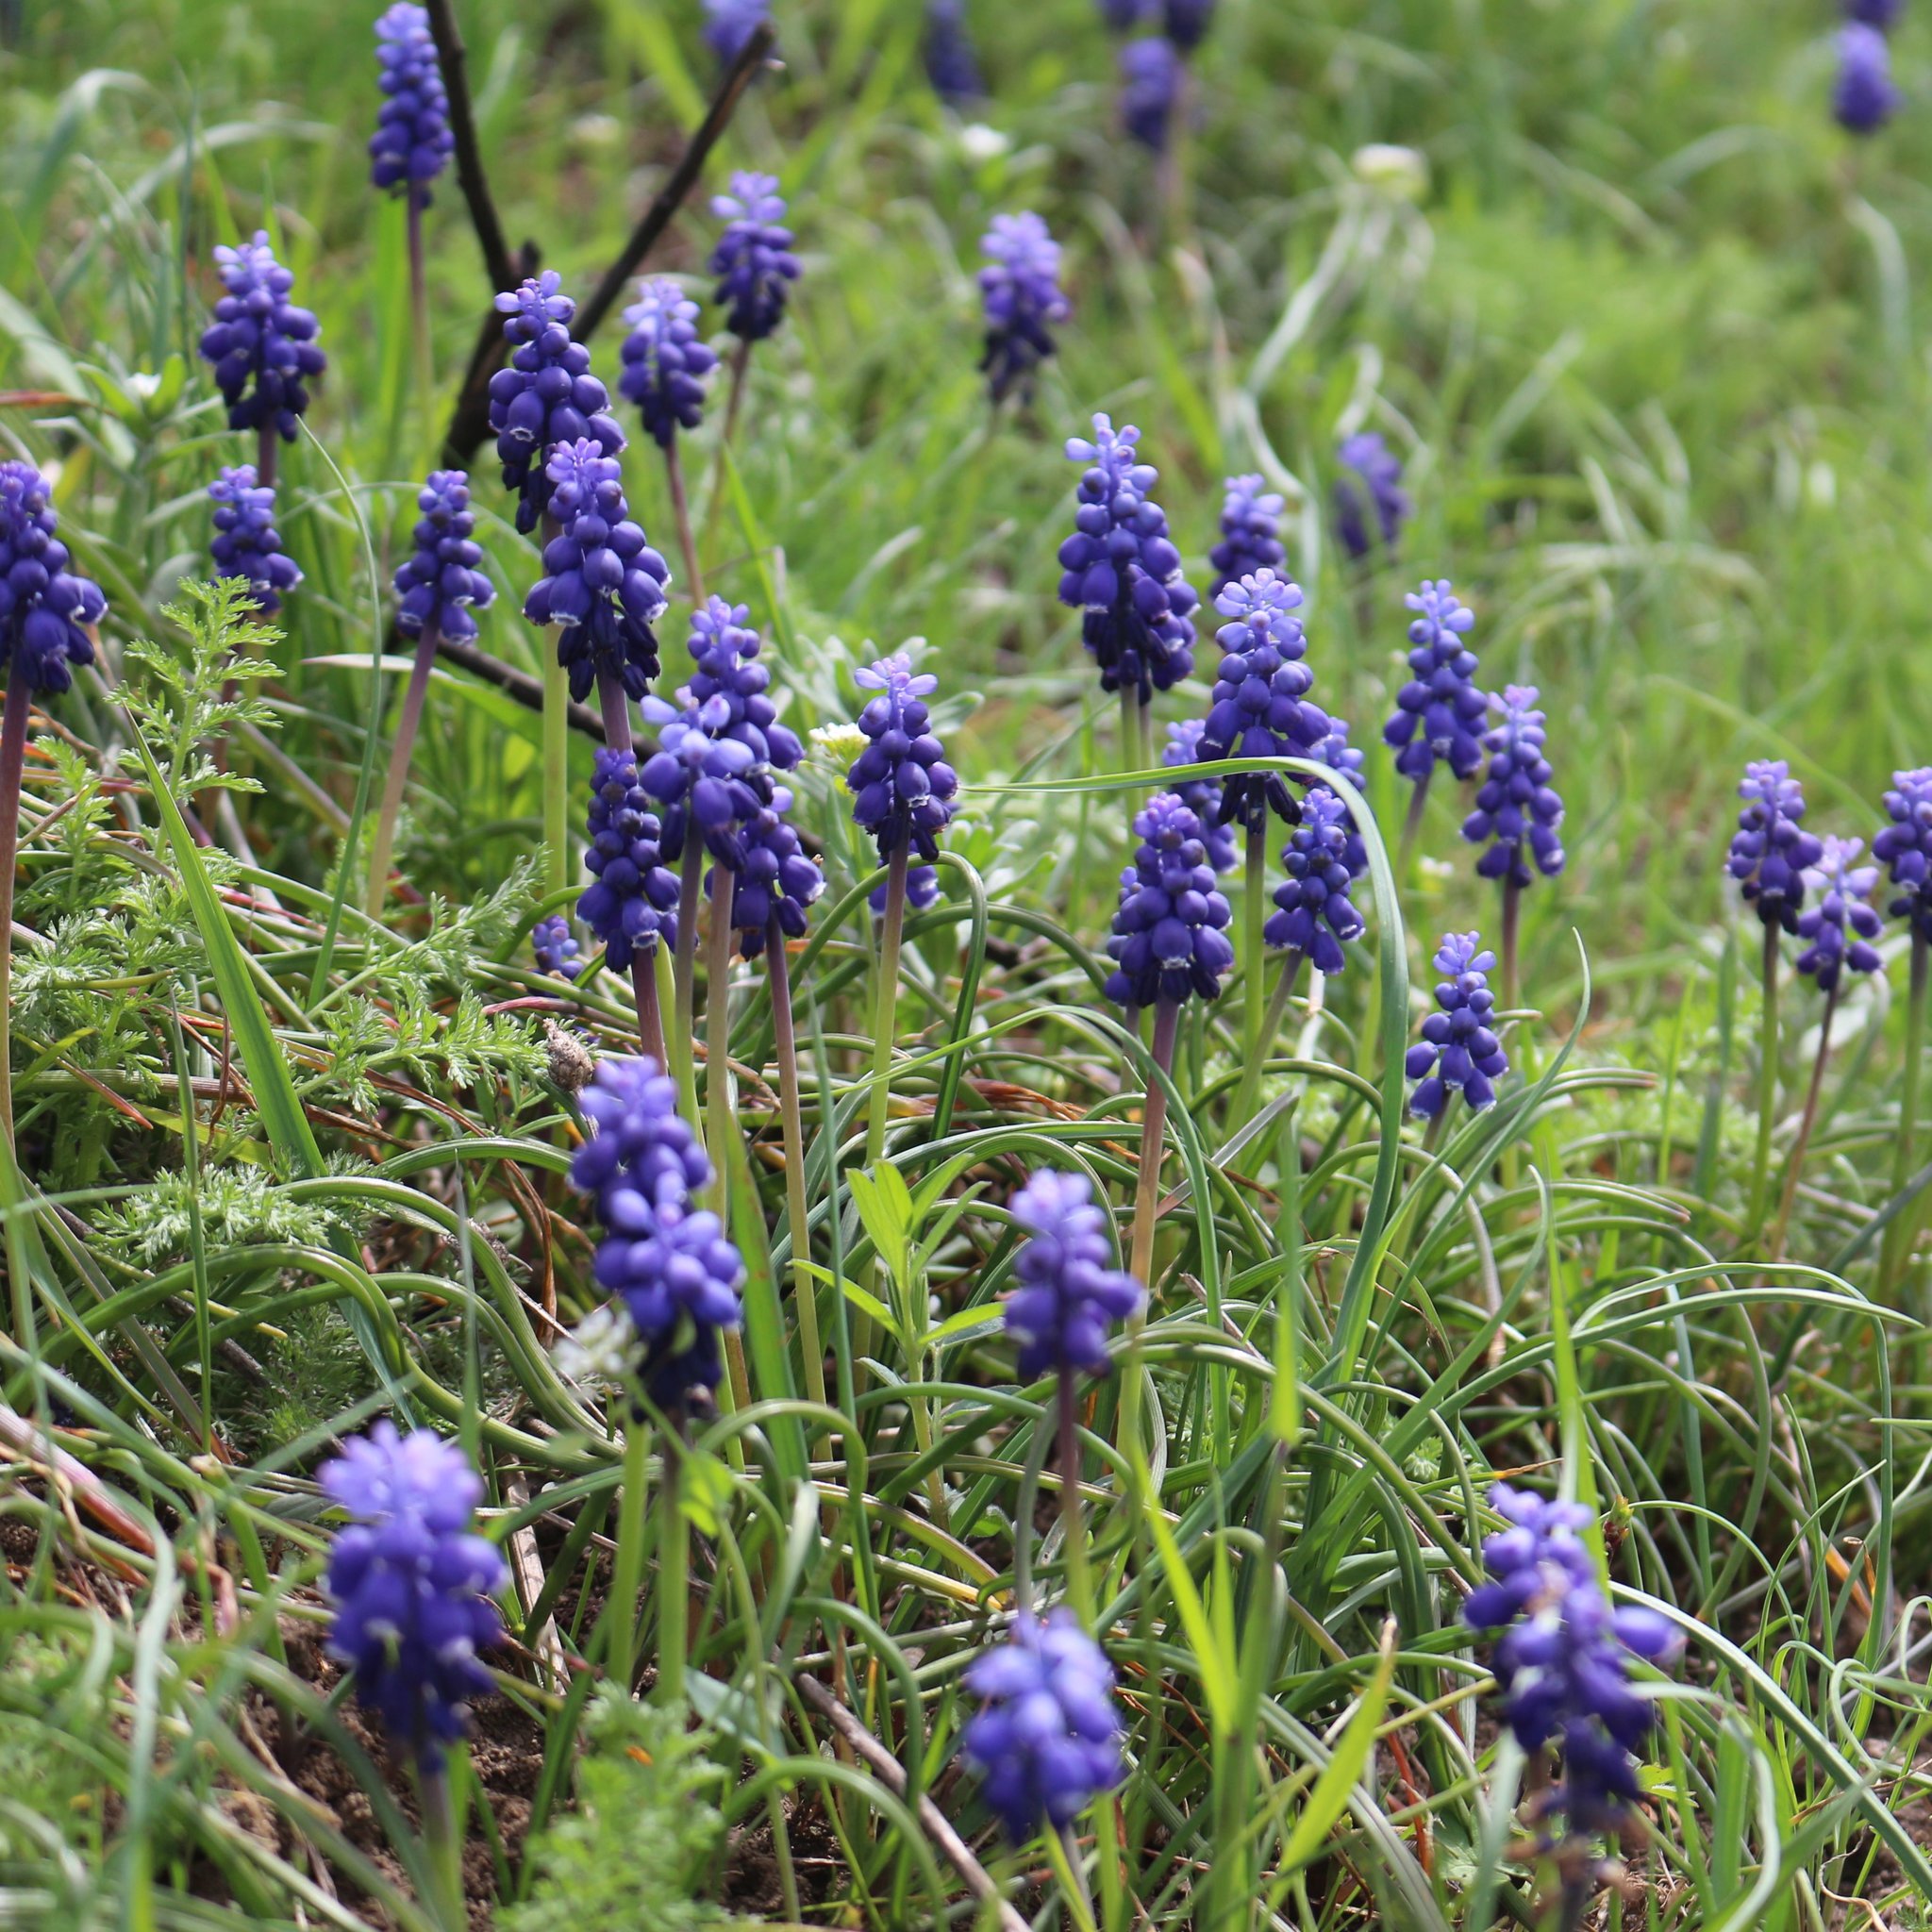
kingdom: Plantae
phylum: Tracheophyta
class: Liliopsida
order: Asparagales
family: Asparagaceae
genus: Muscari
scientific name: Muscari neglectum
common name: Grape-hyacinth
